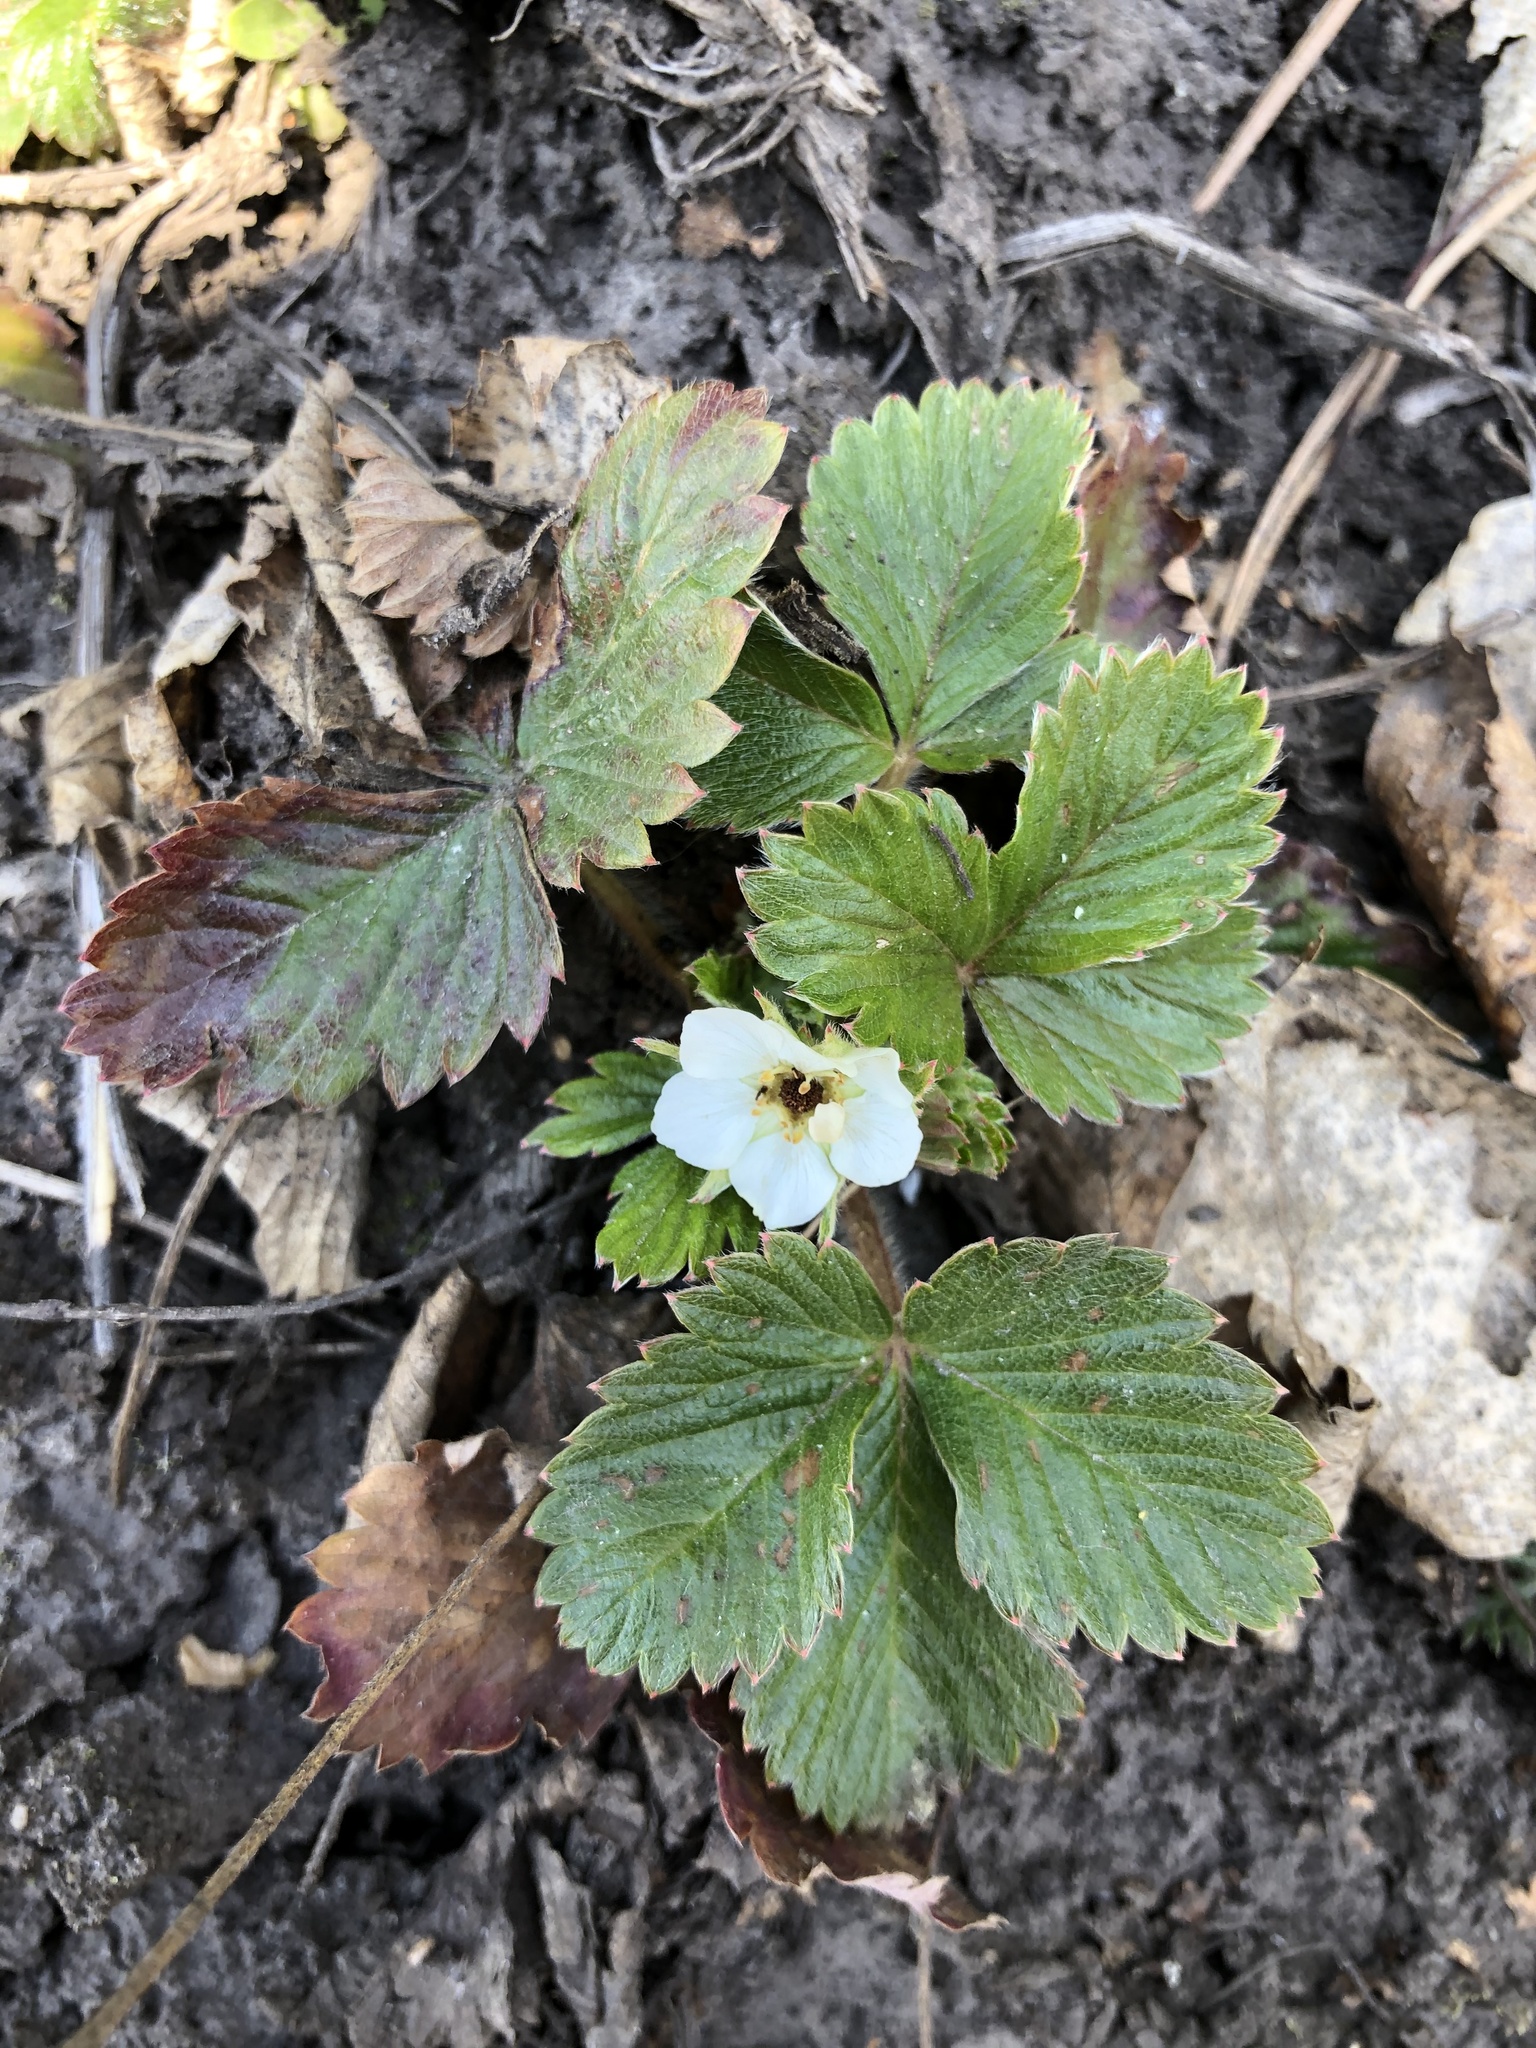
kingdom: Plantae
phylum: Tracheophyta
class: Magnoliopsida
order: Rosales
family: Rosaceae
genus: Fragaria
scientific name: Fragaria viridis
